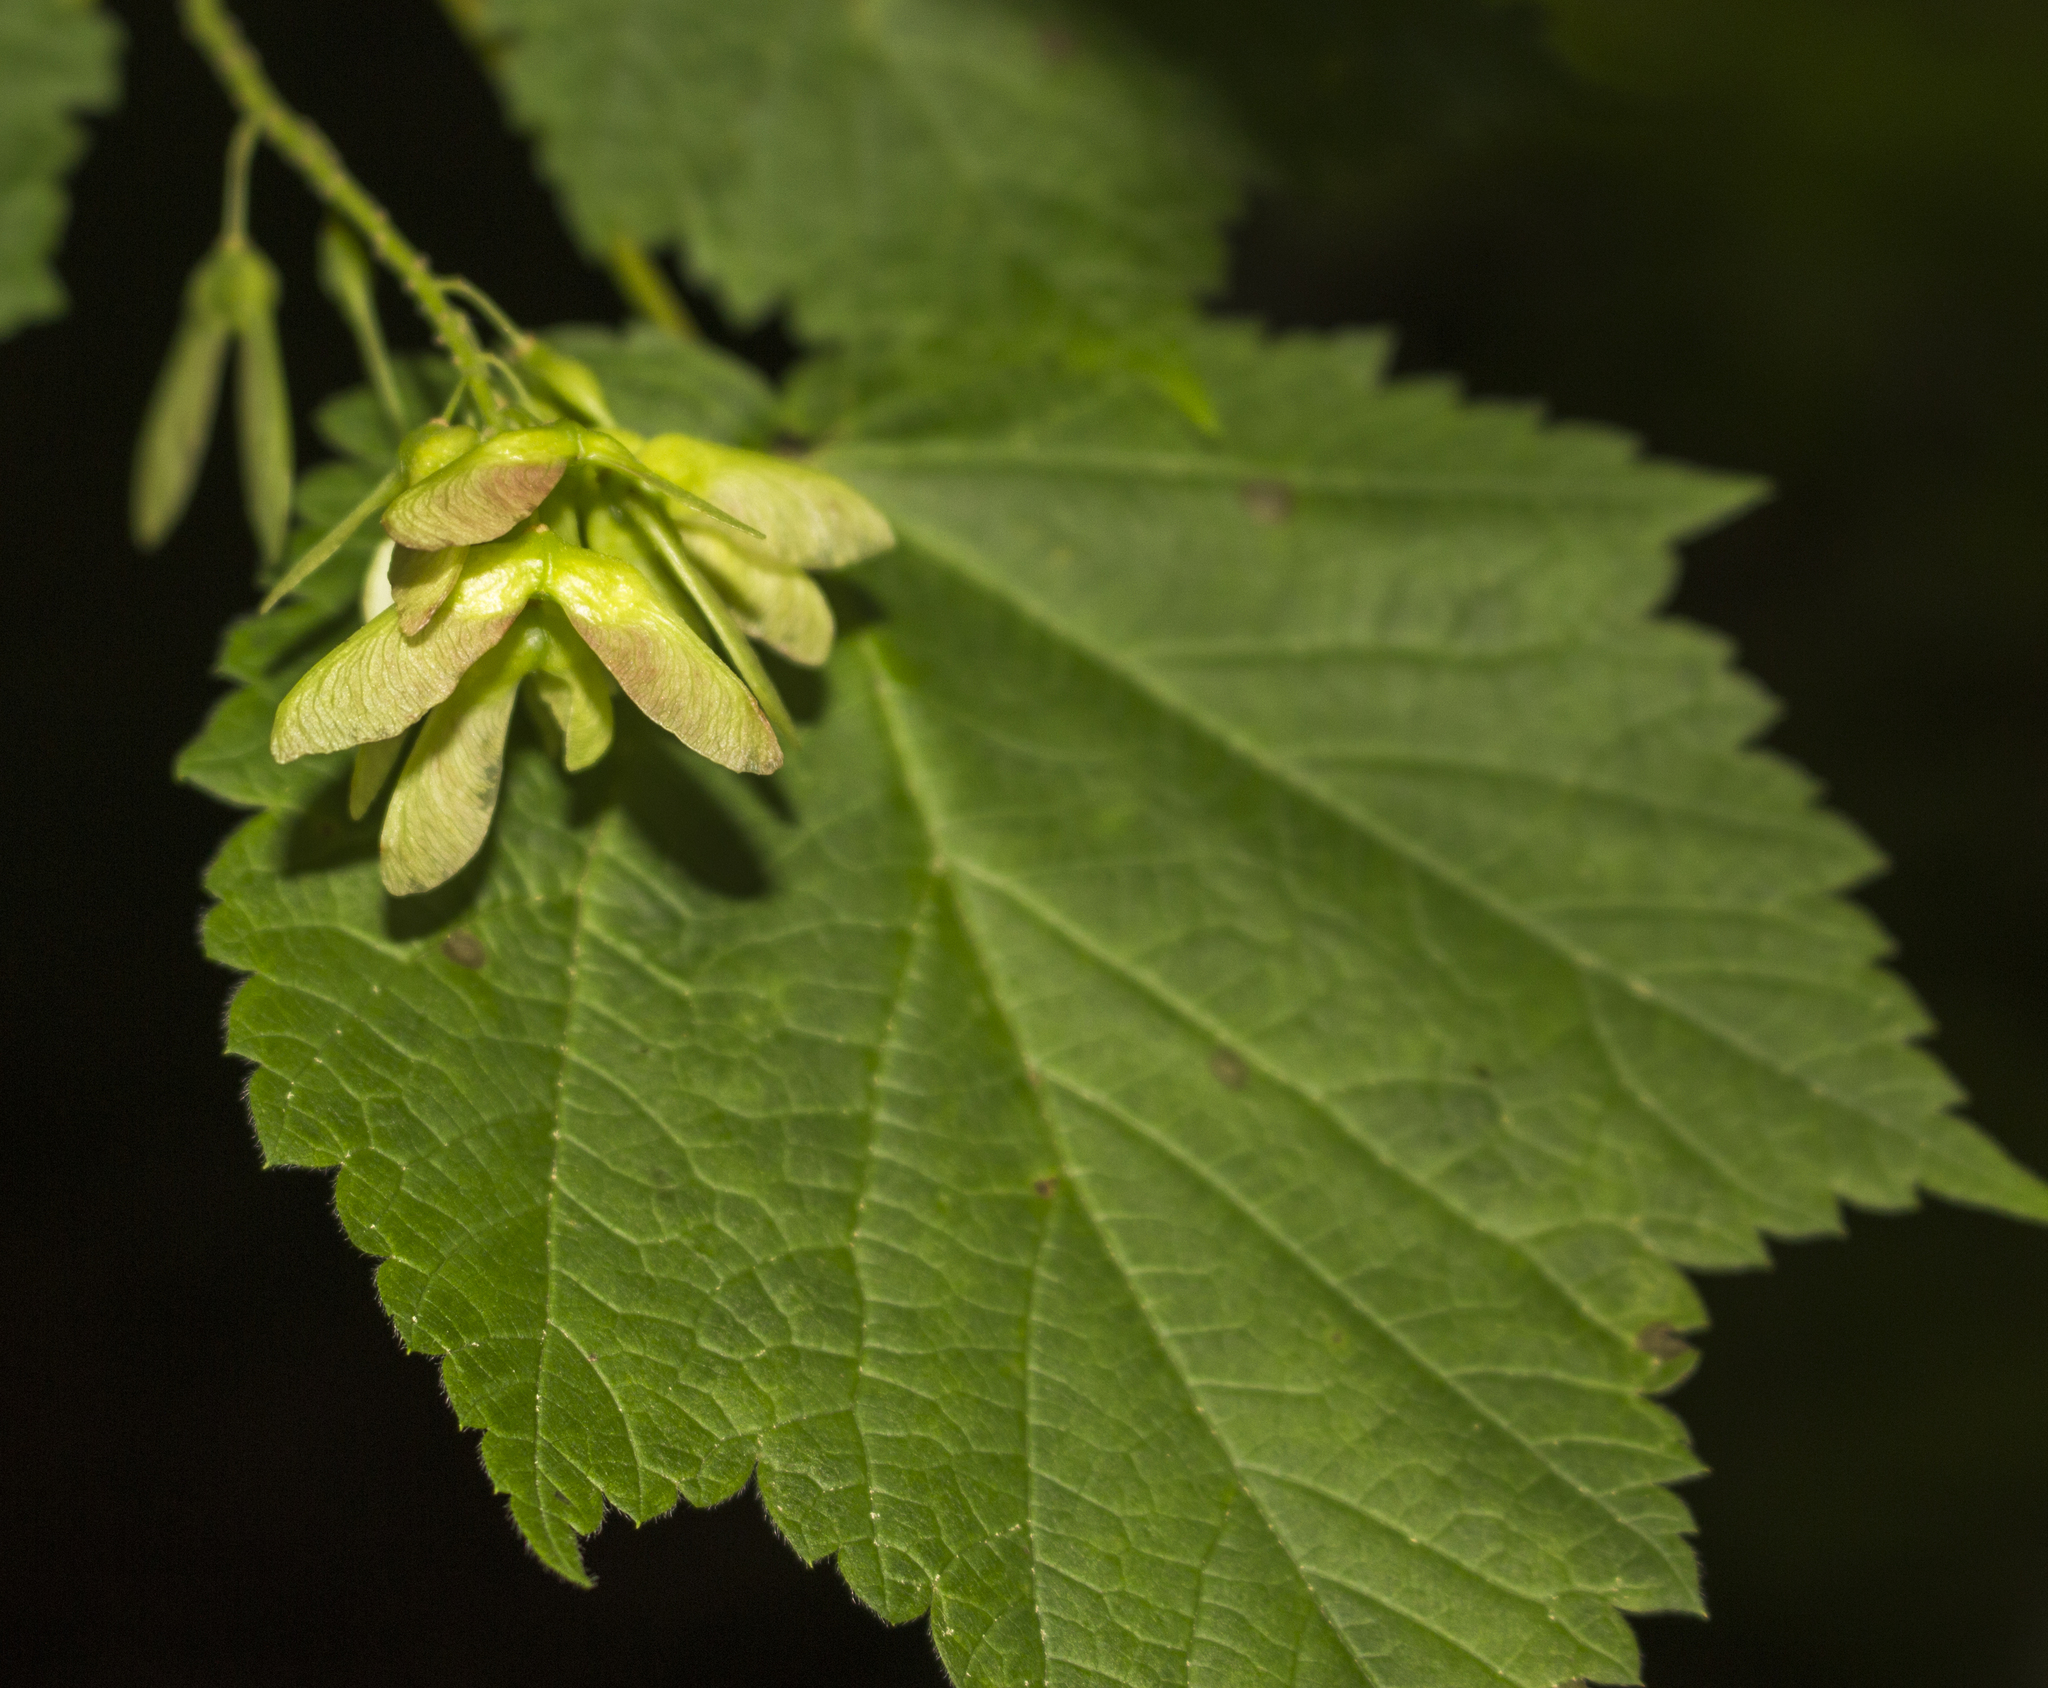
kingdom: Plantae
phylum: Tracheophyta
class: Magnoliopsida
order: Sapindales
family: Sapindaceae
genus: Acer
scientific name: Acer spicatum
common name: Mountain maple
